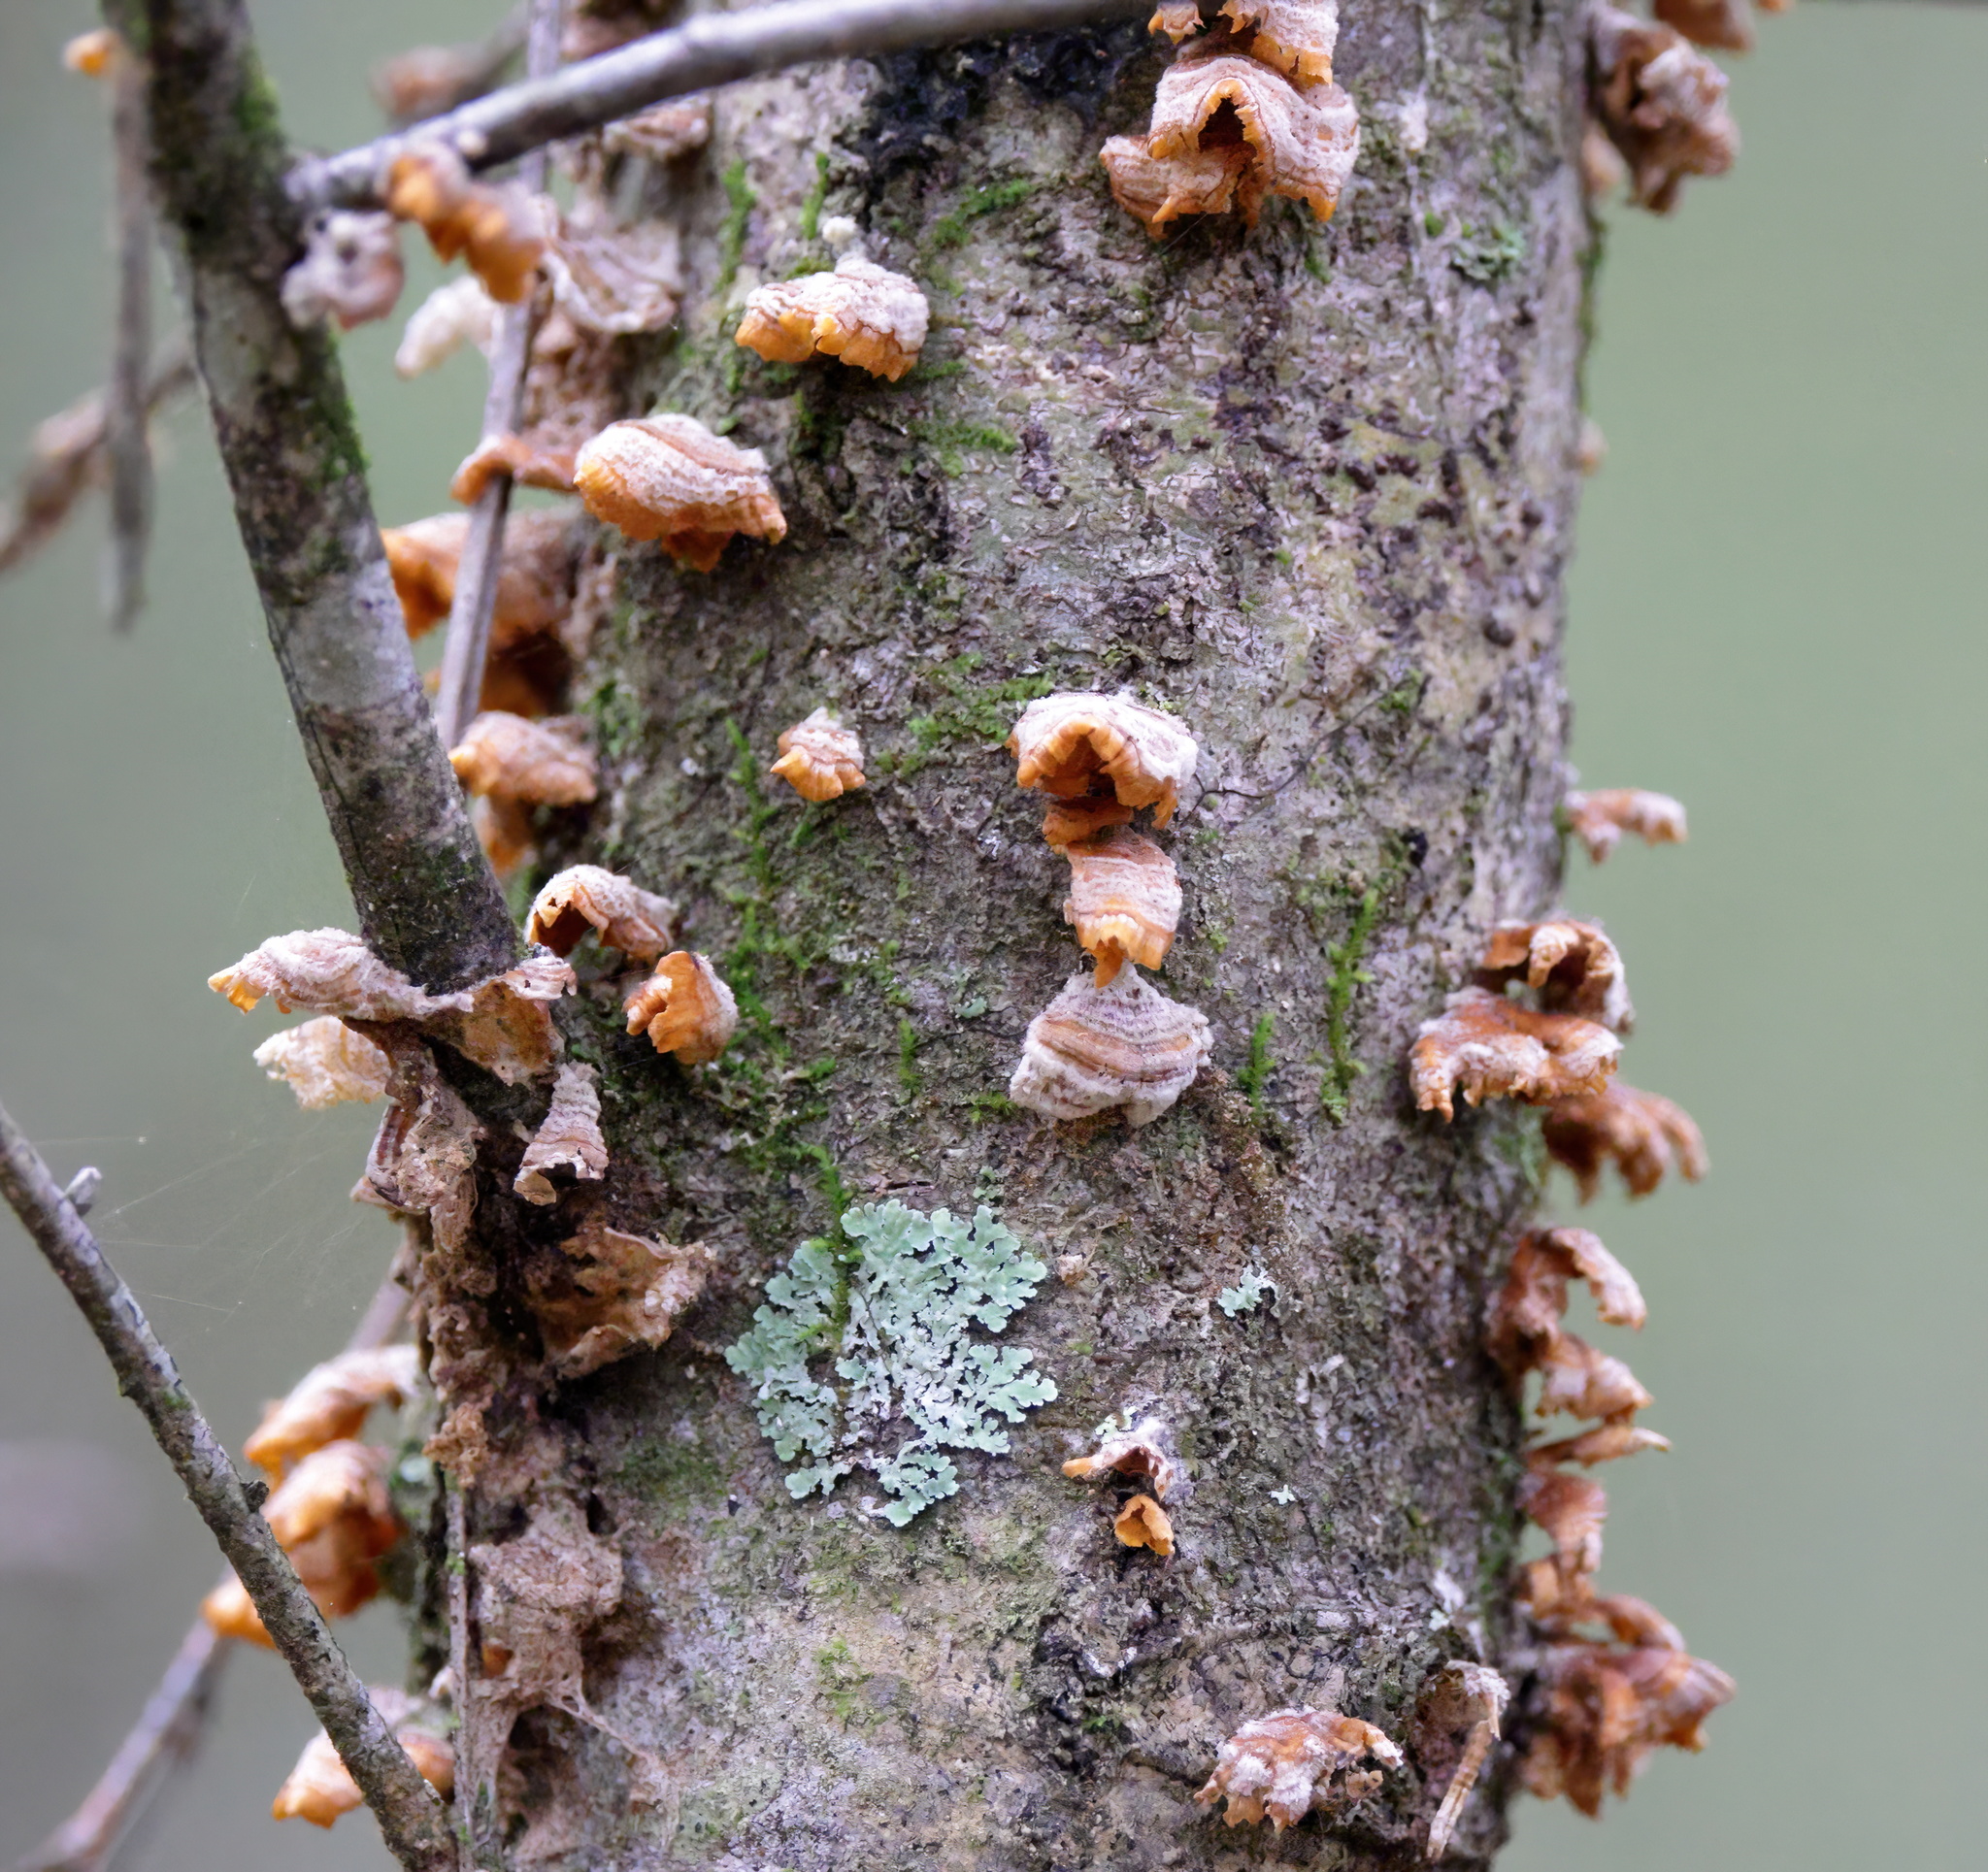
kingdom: Fungi
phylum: Basidiomycota
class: Agaricomycetes
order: Russulales
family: Stereaceae
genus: Stereum
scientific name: Stereum complicatum
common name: Crowded parchment
